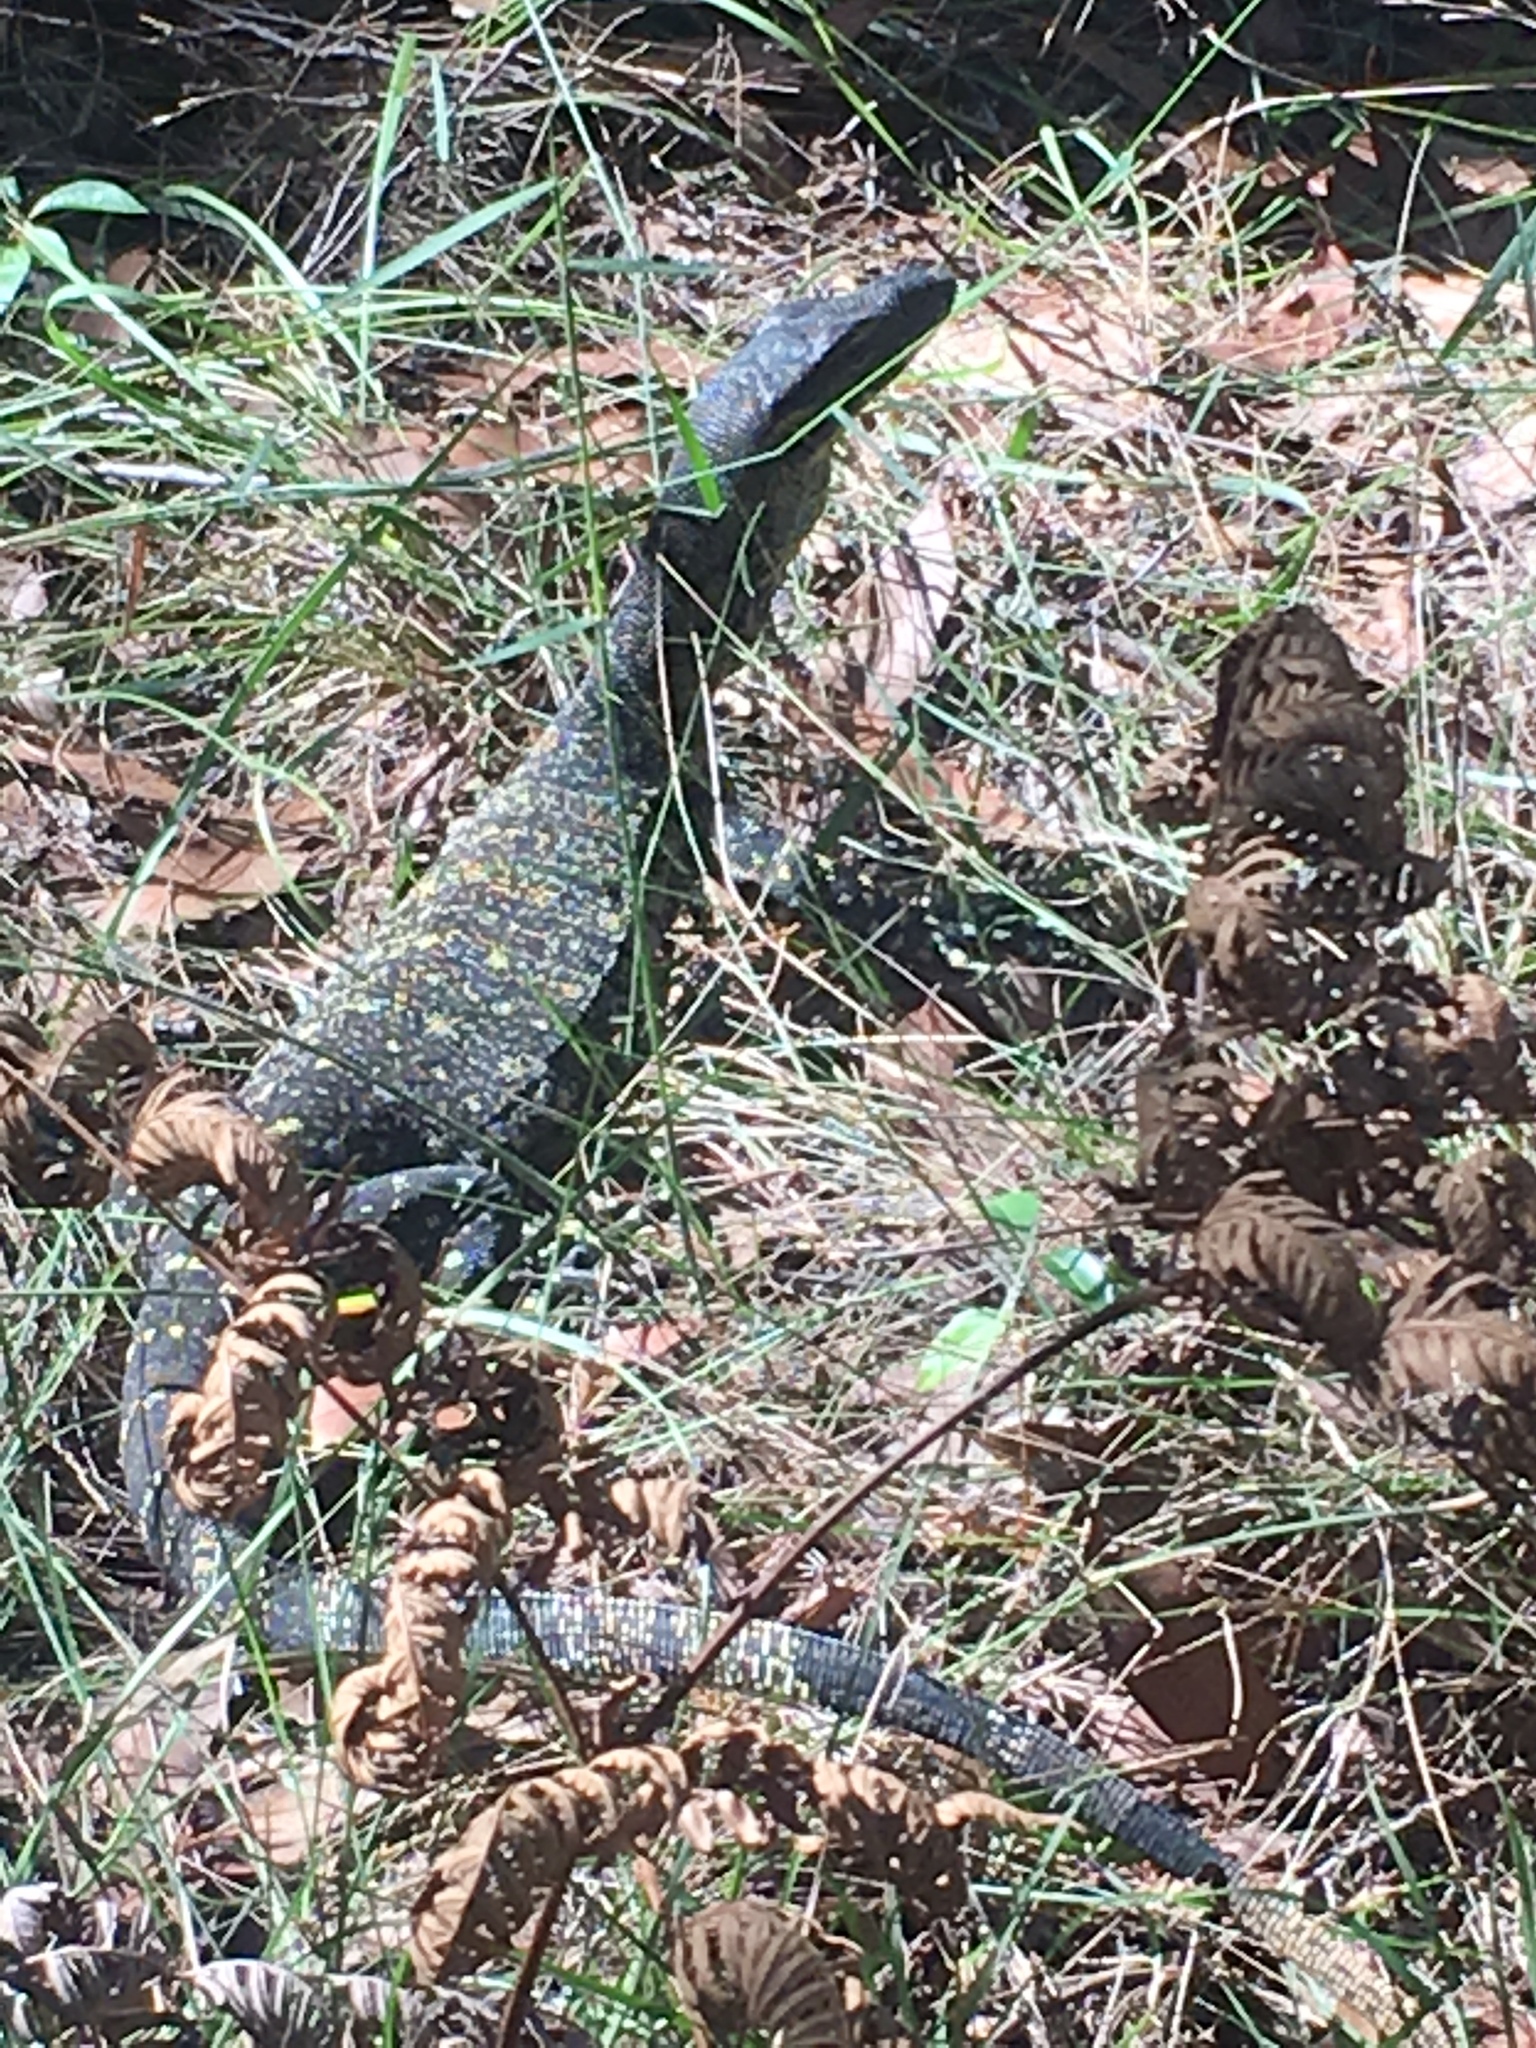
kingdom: Animalia
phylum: Chordata
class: Squamata
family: Varanidae
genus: Varanus
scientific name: Varanus varius
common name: Lace monitor
